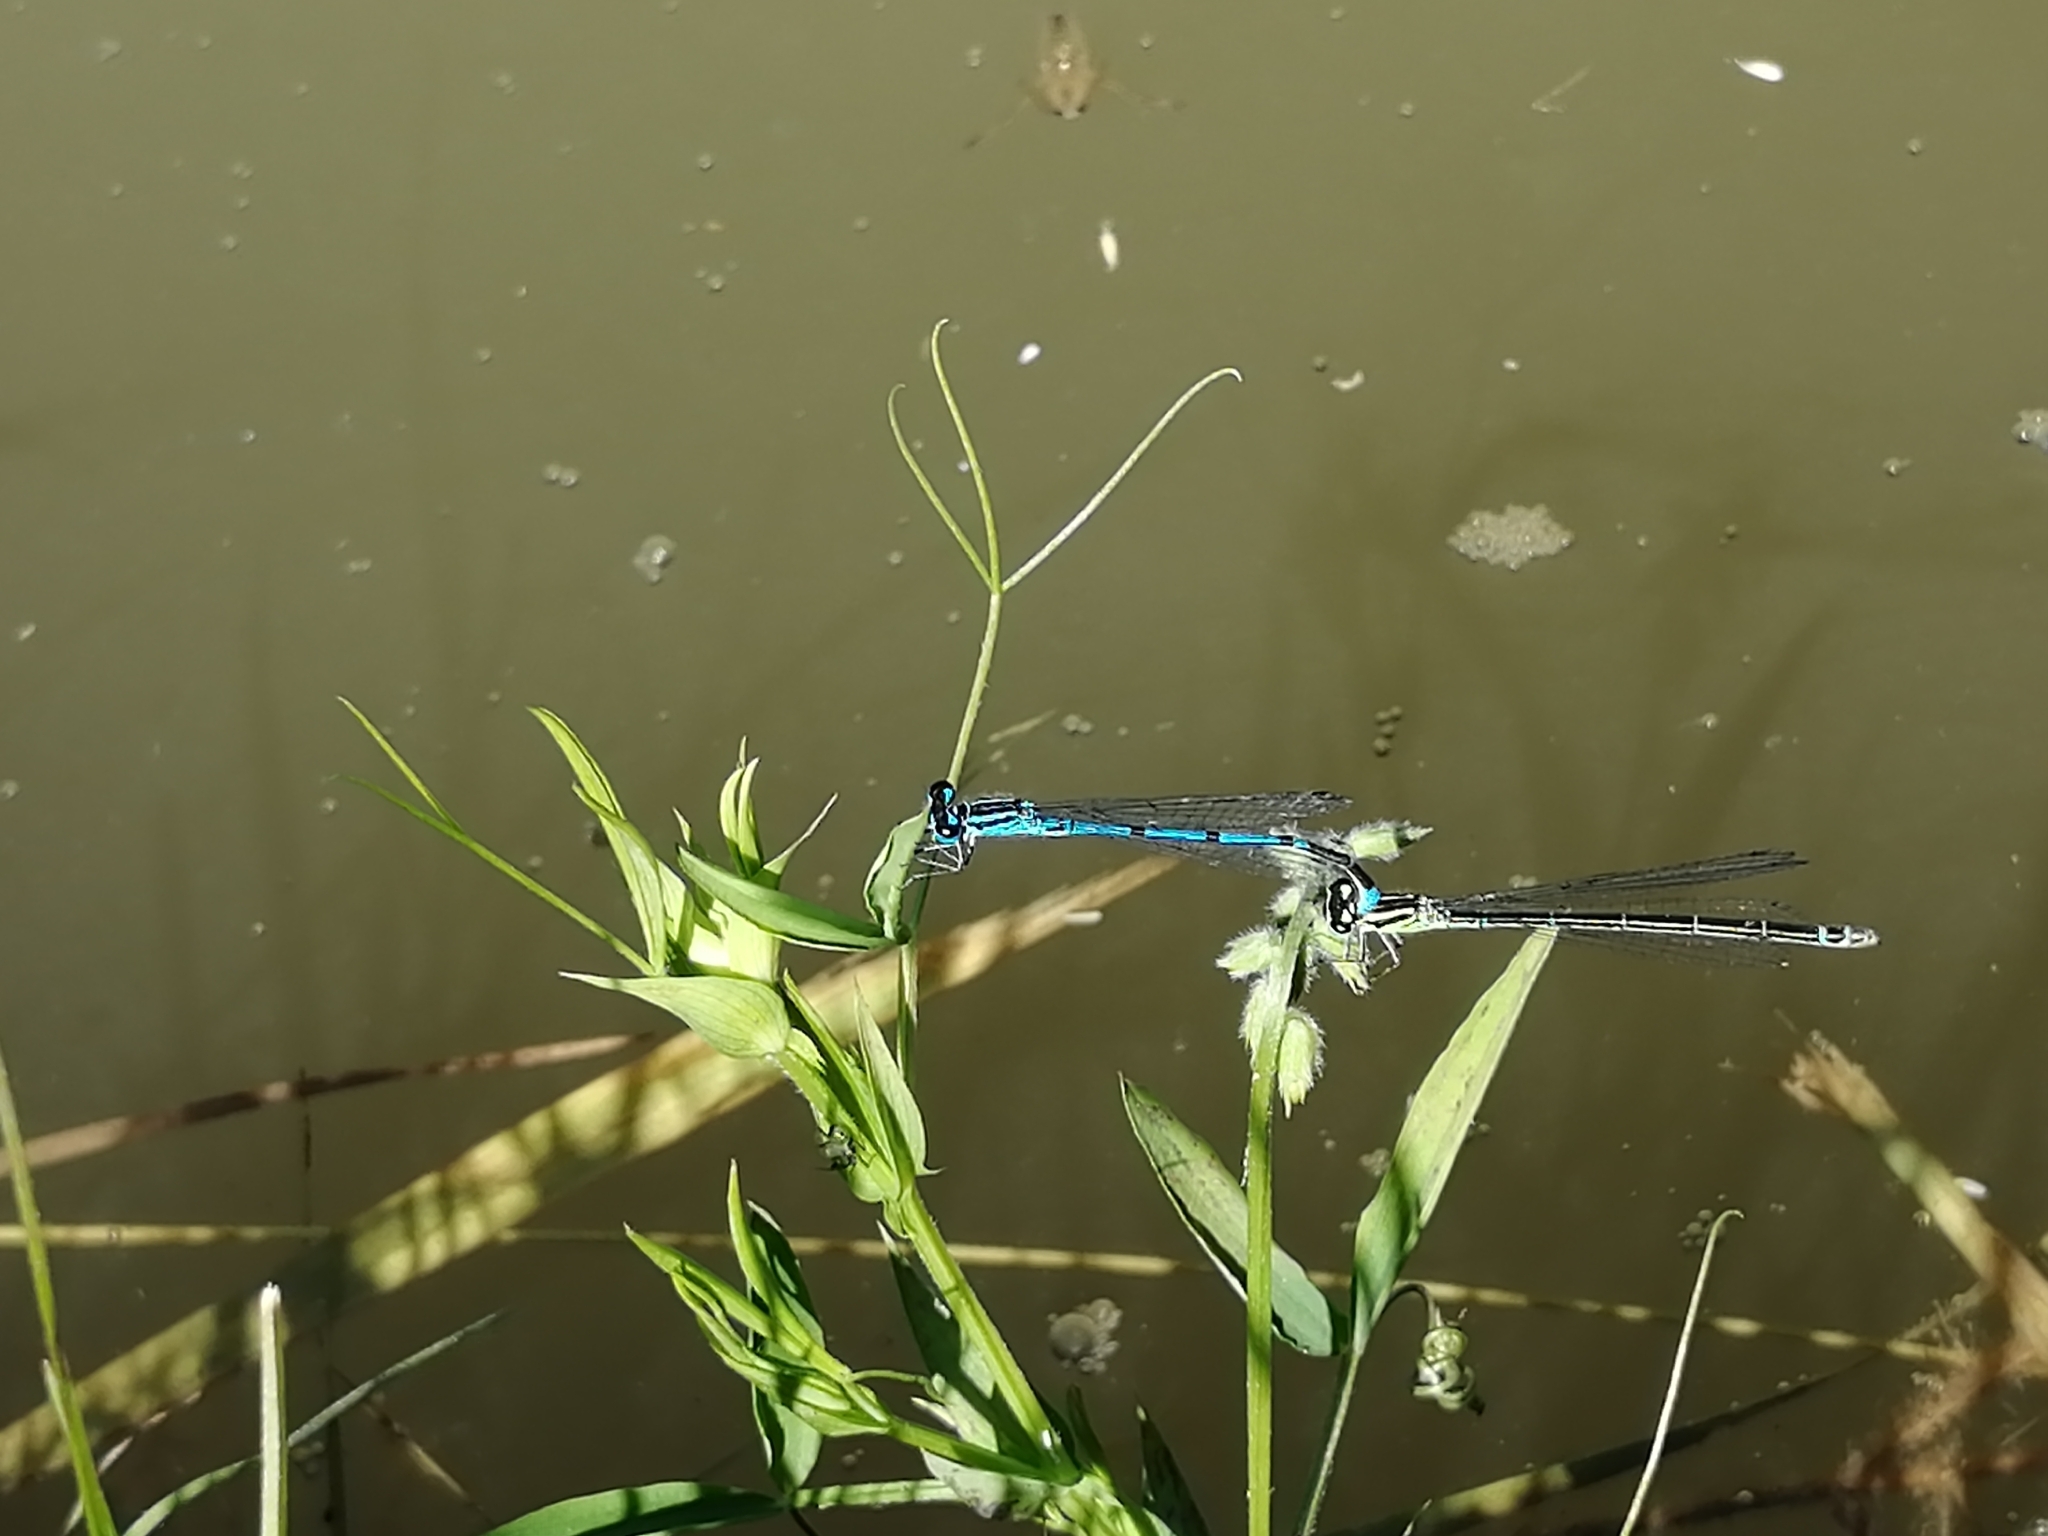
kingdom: Animalia
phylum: Arthropoda
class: Insecta
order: Odonata
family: Coenagrionidae
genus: Coenagrion
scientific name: Coenagrion puella
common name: Azure damselfly
